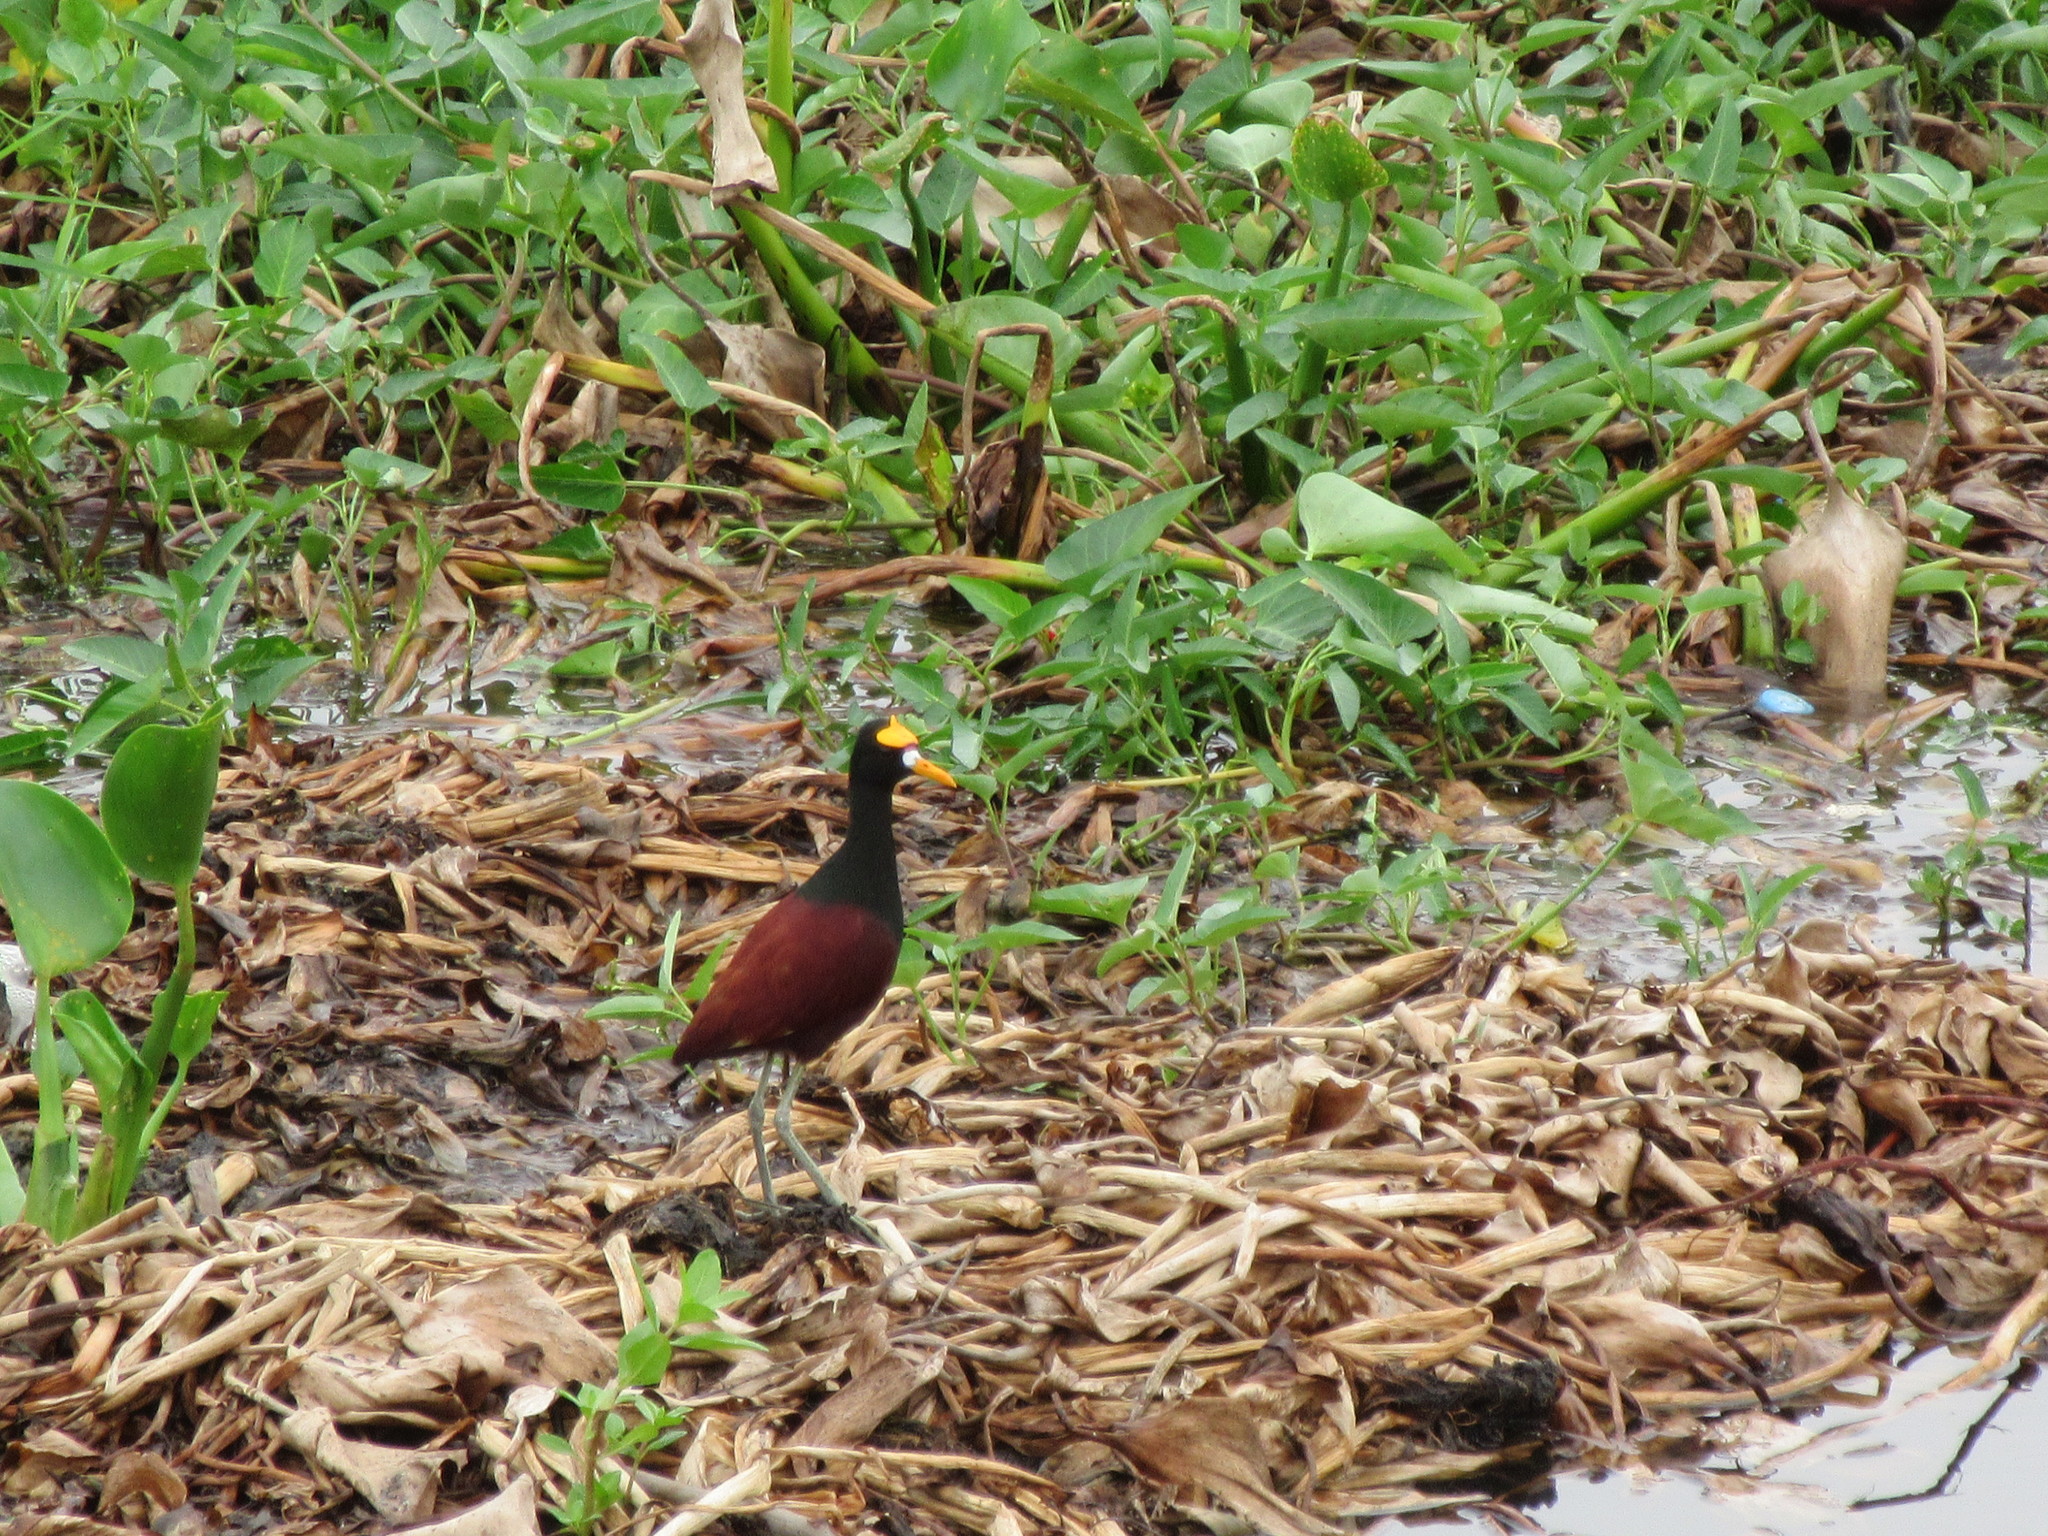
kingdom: Animalia
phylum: Chordata
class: Aves
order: Charadriiformes
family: Jacanidae
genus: Jacana
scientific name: Jacana spinosa
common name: Northern jacana
